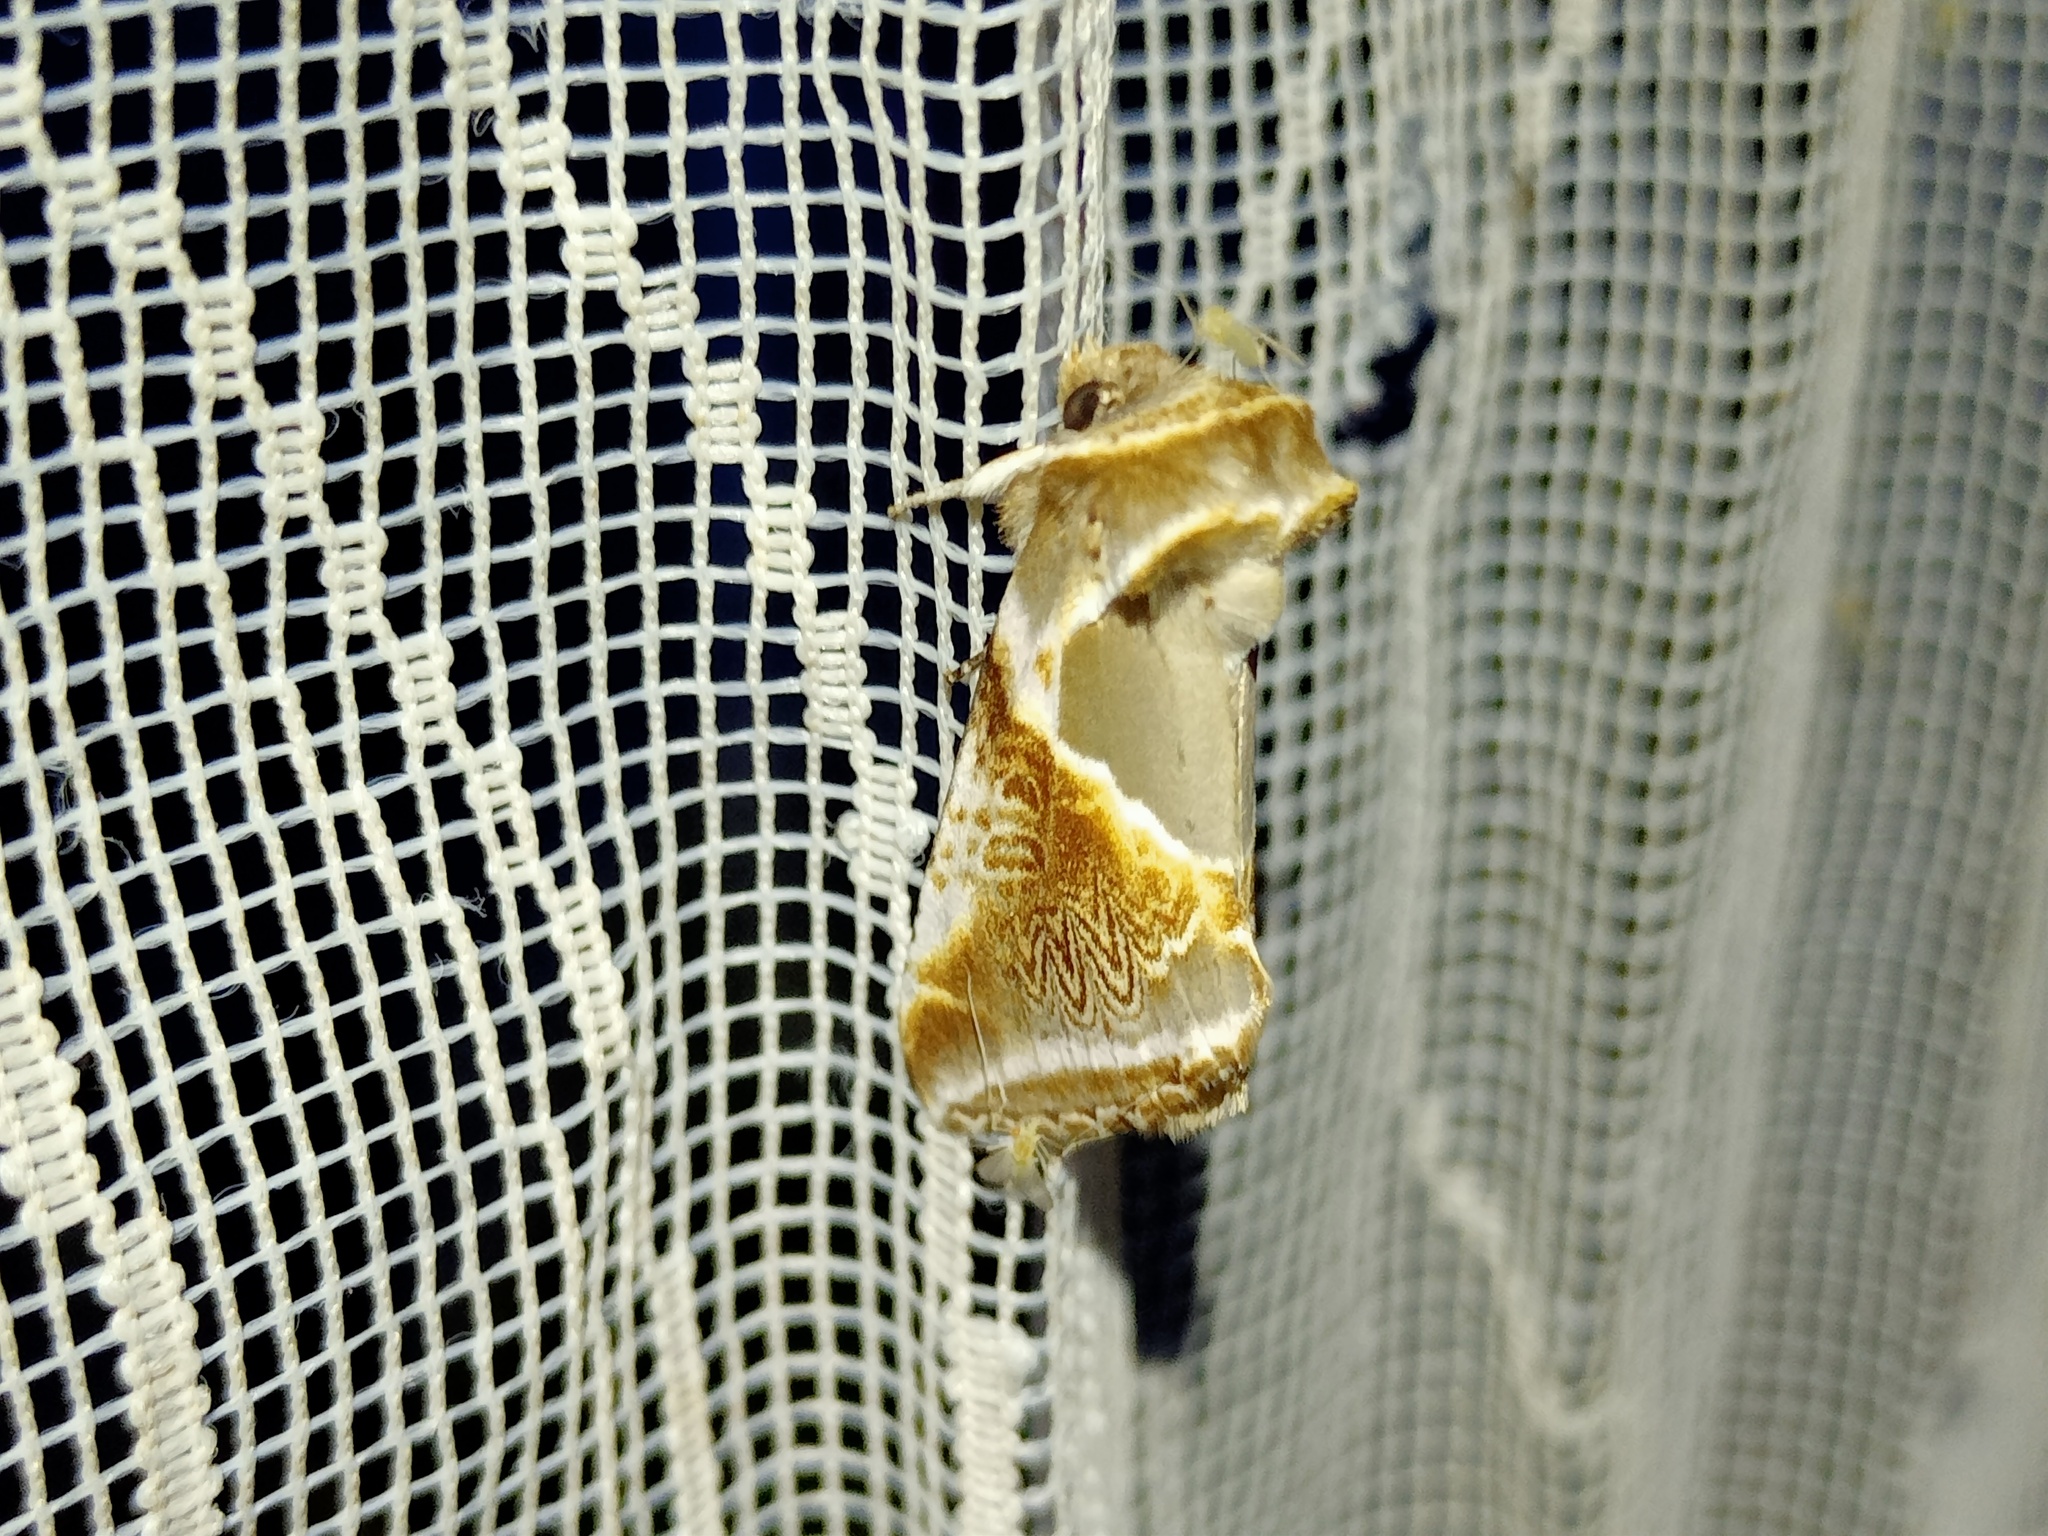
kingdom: Animalia
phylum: Arthropoda
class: Insecta
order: Lepidoptera
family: Drepanidae
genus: Habrosyne
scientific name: Habrosyne pyritoides
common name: Buff arches
